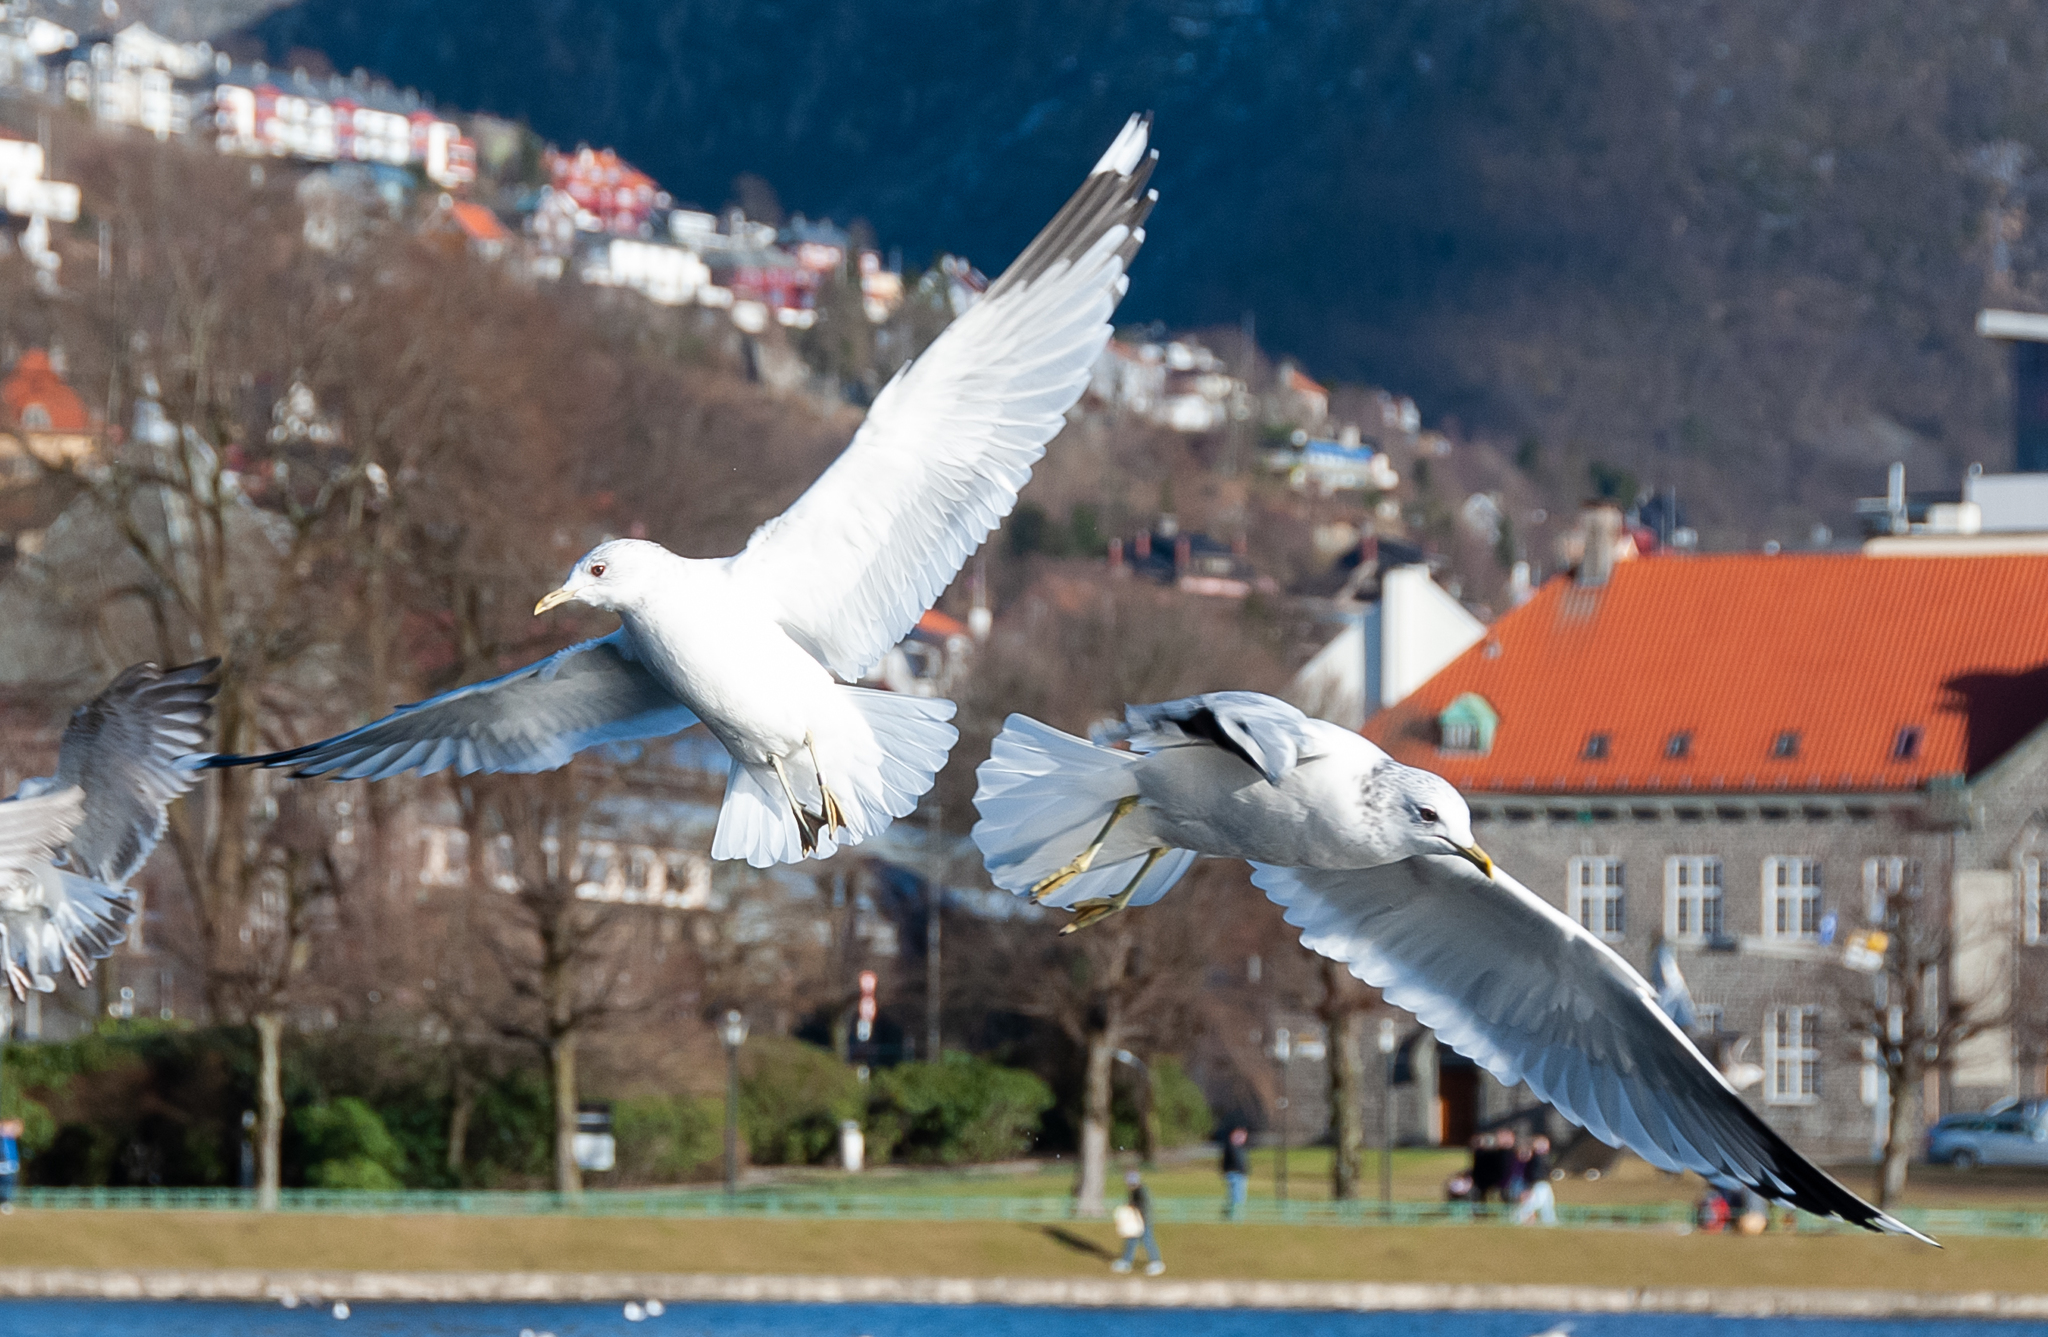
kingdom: Animalia
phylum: Chordata
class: Aves
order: Charadriiformes
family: Laridae
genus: Larus
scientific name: Larus canus
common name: Mew gull
